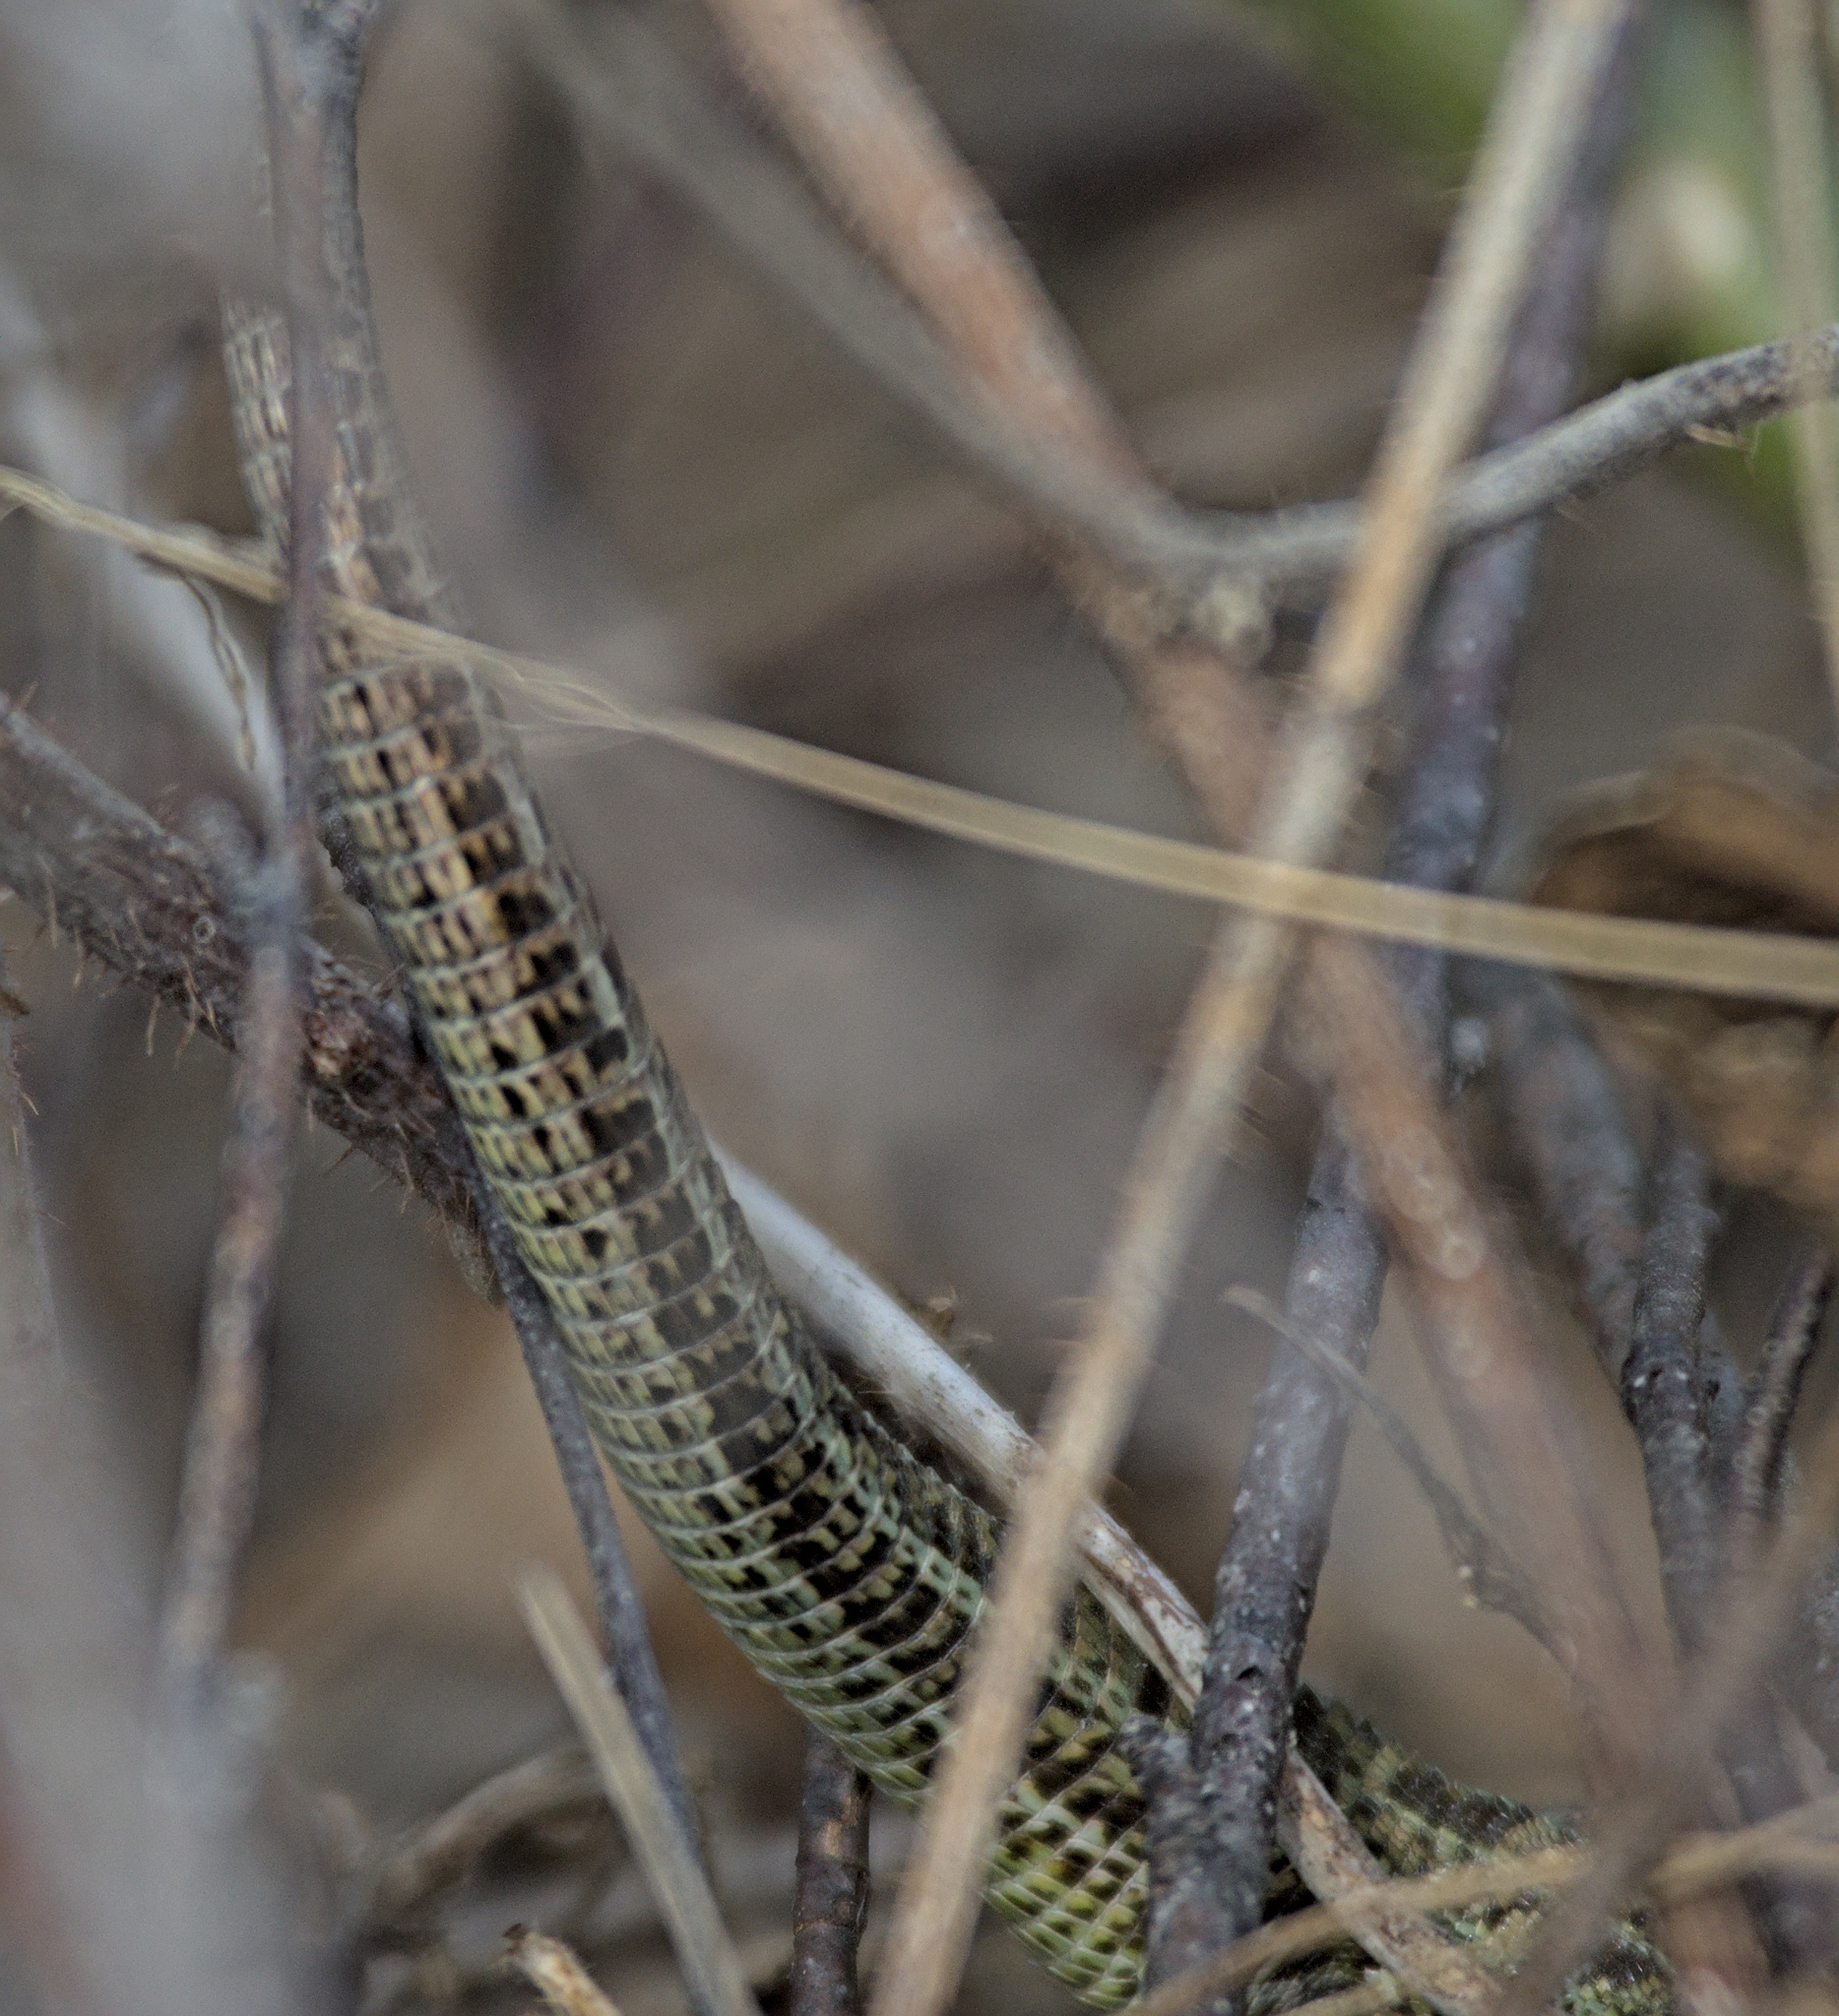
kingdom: Animalia
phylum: Chordata
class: Squamata
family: Lacertidae
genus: Lacerta
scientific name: Lacerta agilis
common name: Sand lizard
